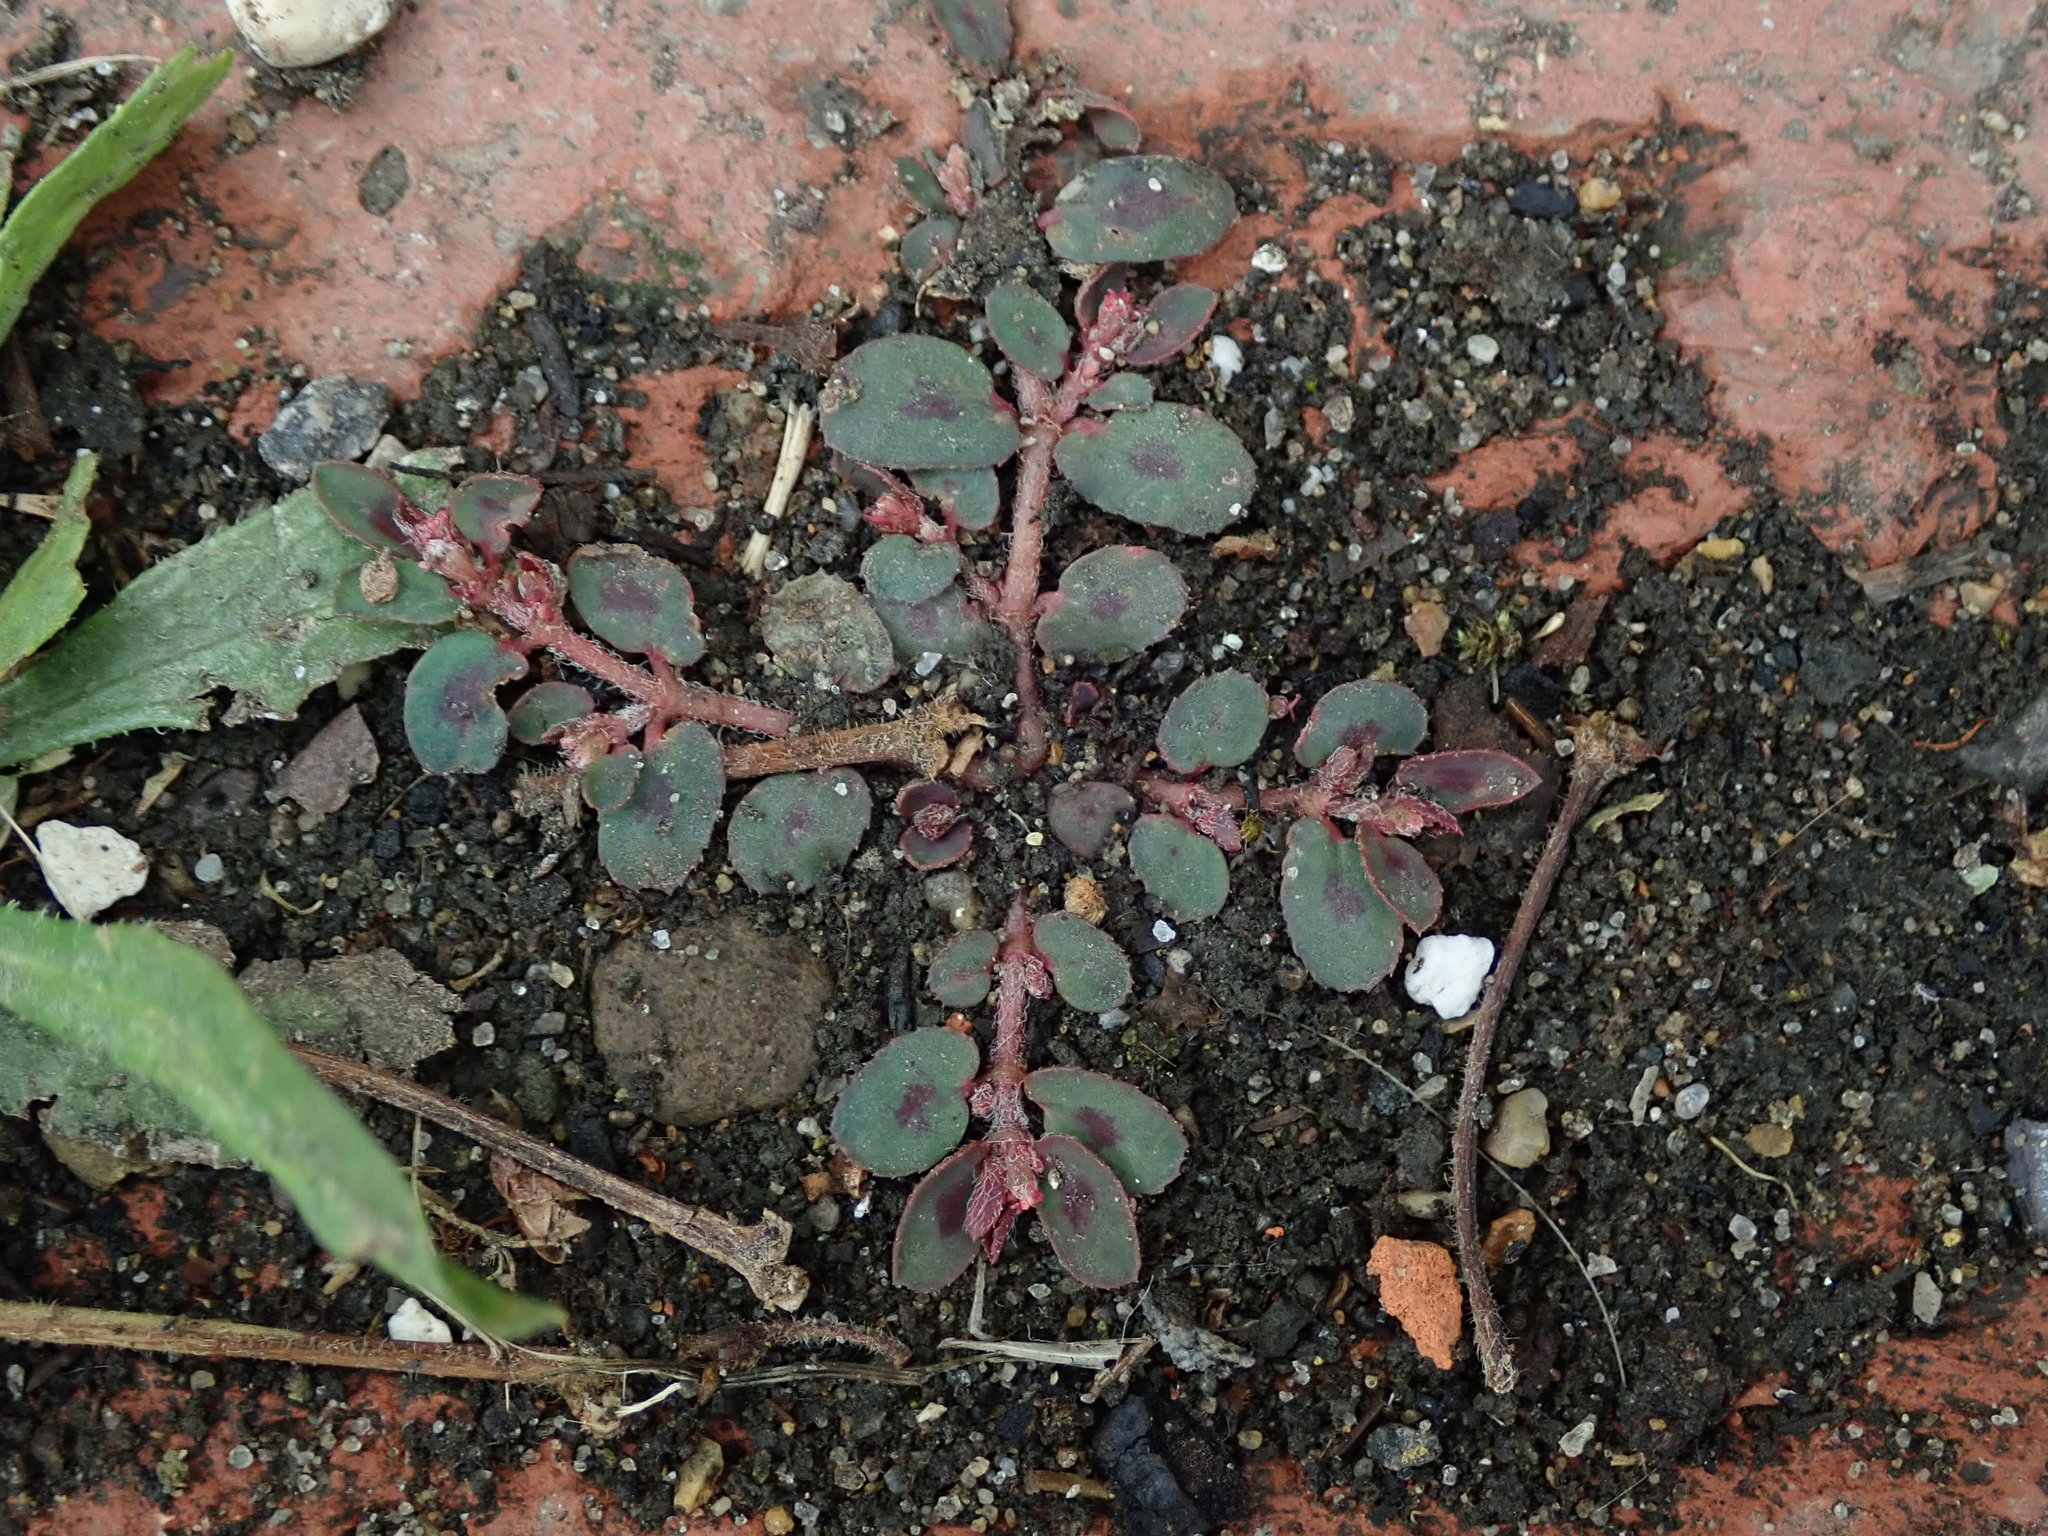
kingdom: Plantae
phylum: Tracheophyta
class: Magnoliopsida
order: Malpighiales
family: Euphorbiaceae
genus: Euphorbia
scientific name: Euphorbia maculata
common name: Spotted spurge
